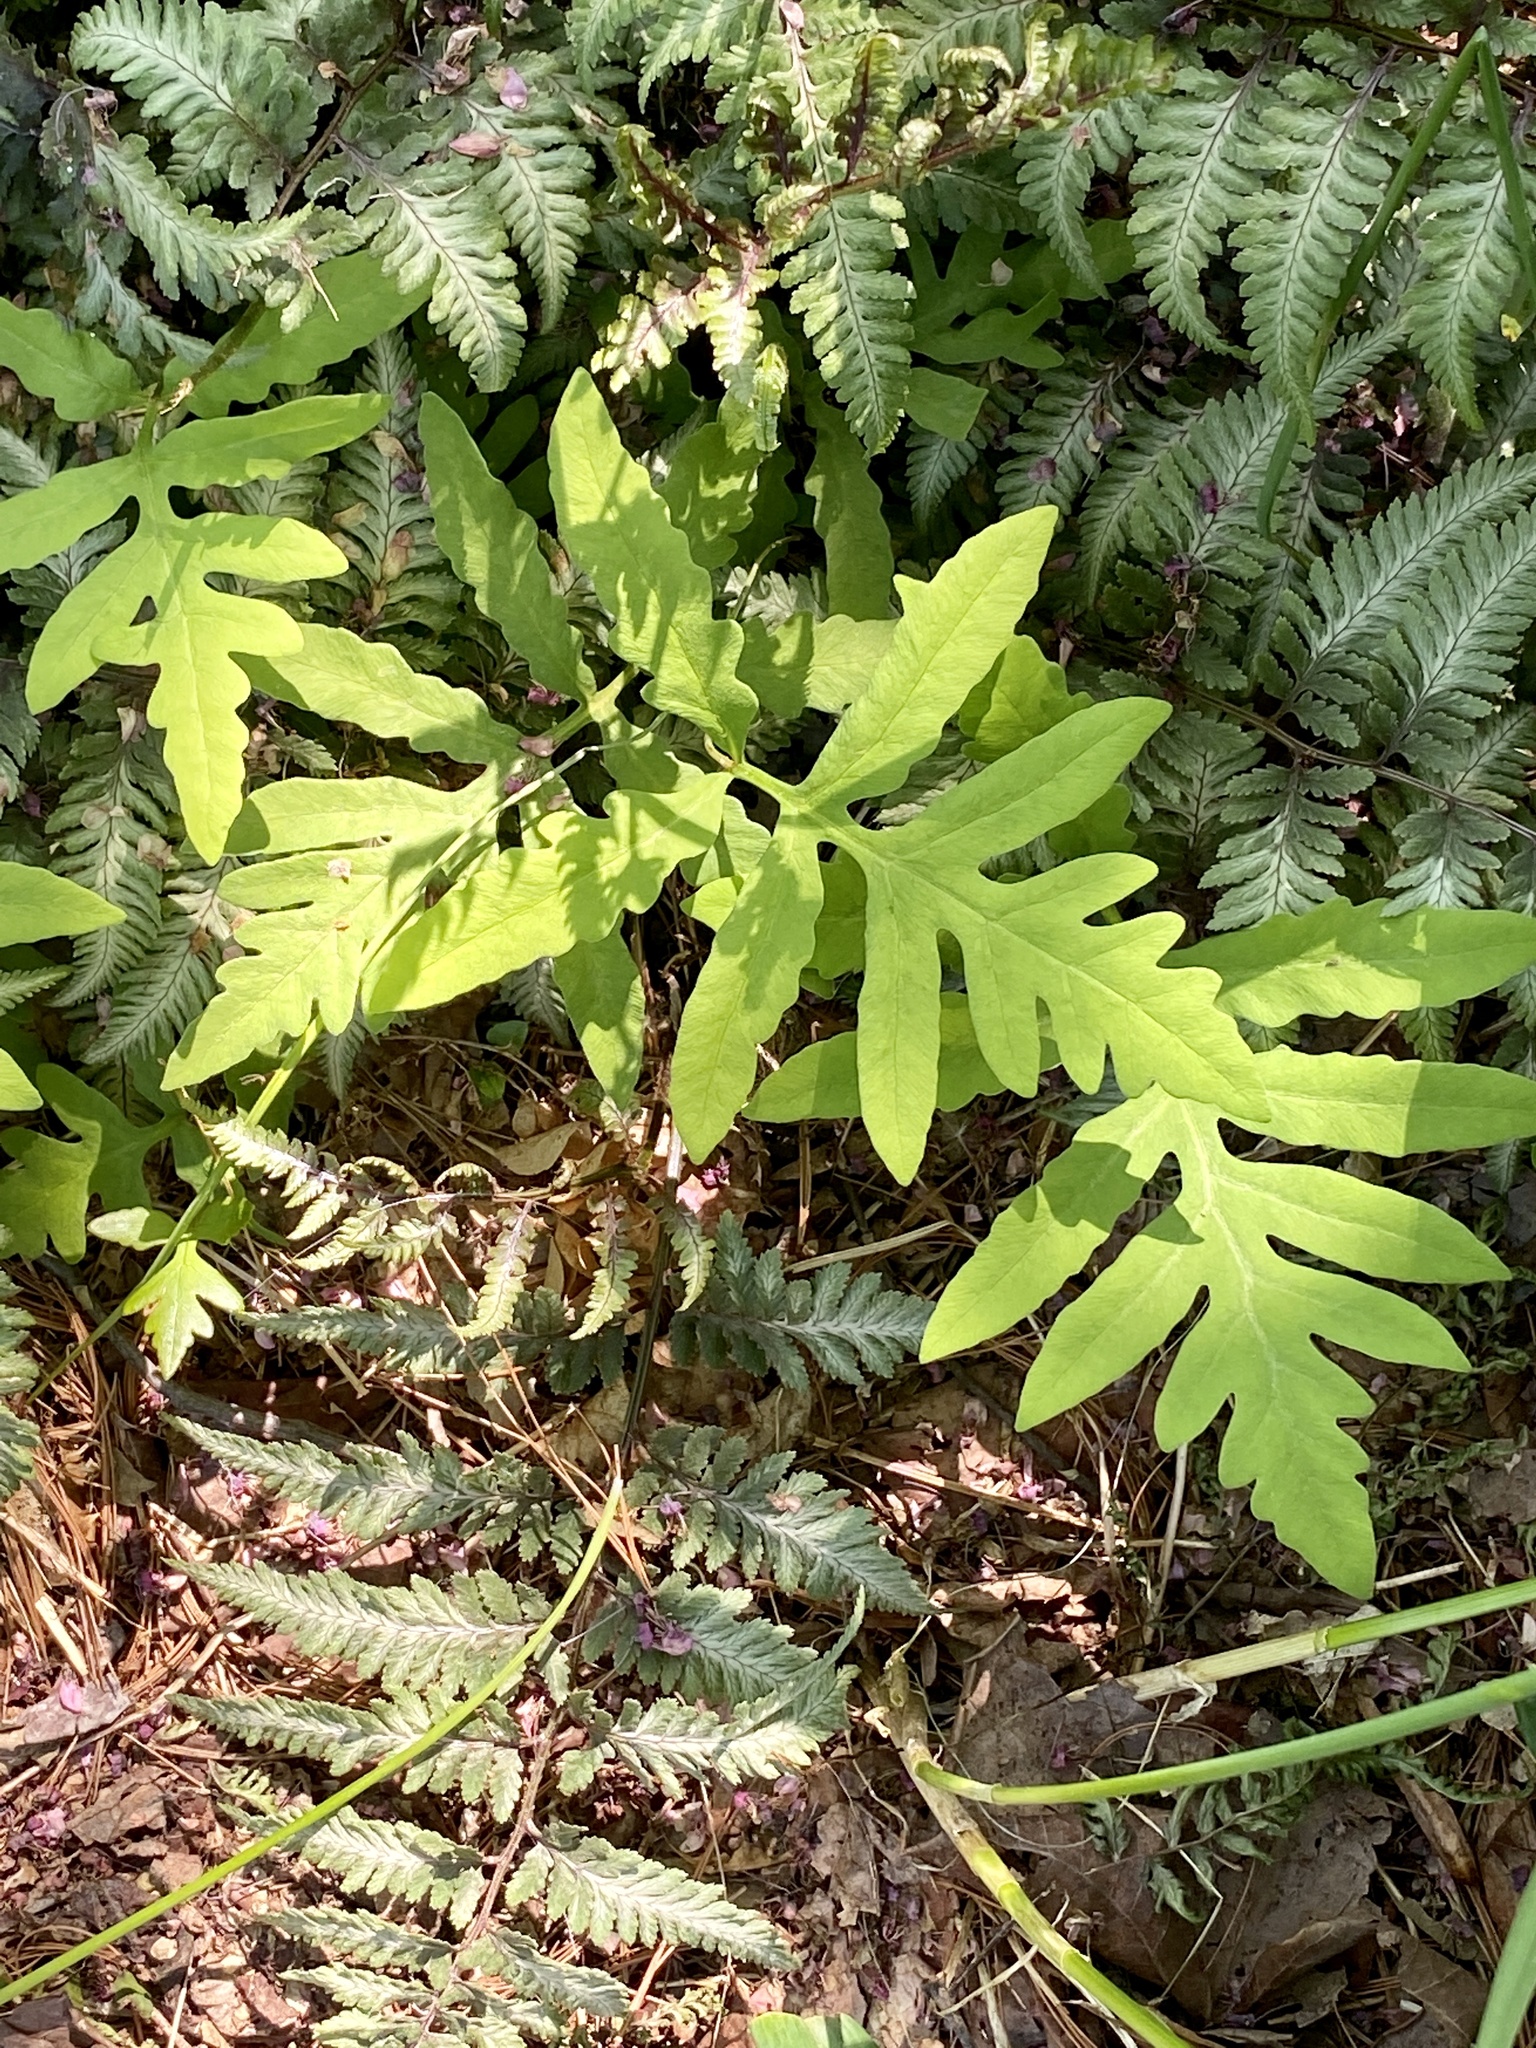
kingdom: Plantae
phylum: Tracheophyta
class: Polypodiopsida
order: Polypodiales
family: Onocleaceae
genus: Onoclea
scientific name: Onoclea sensibilis
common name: Sensitive fern
